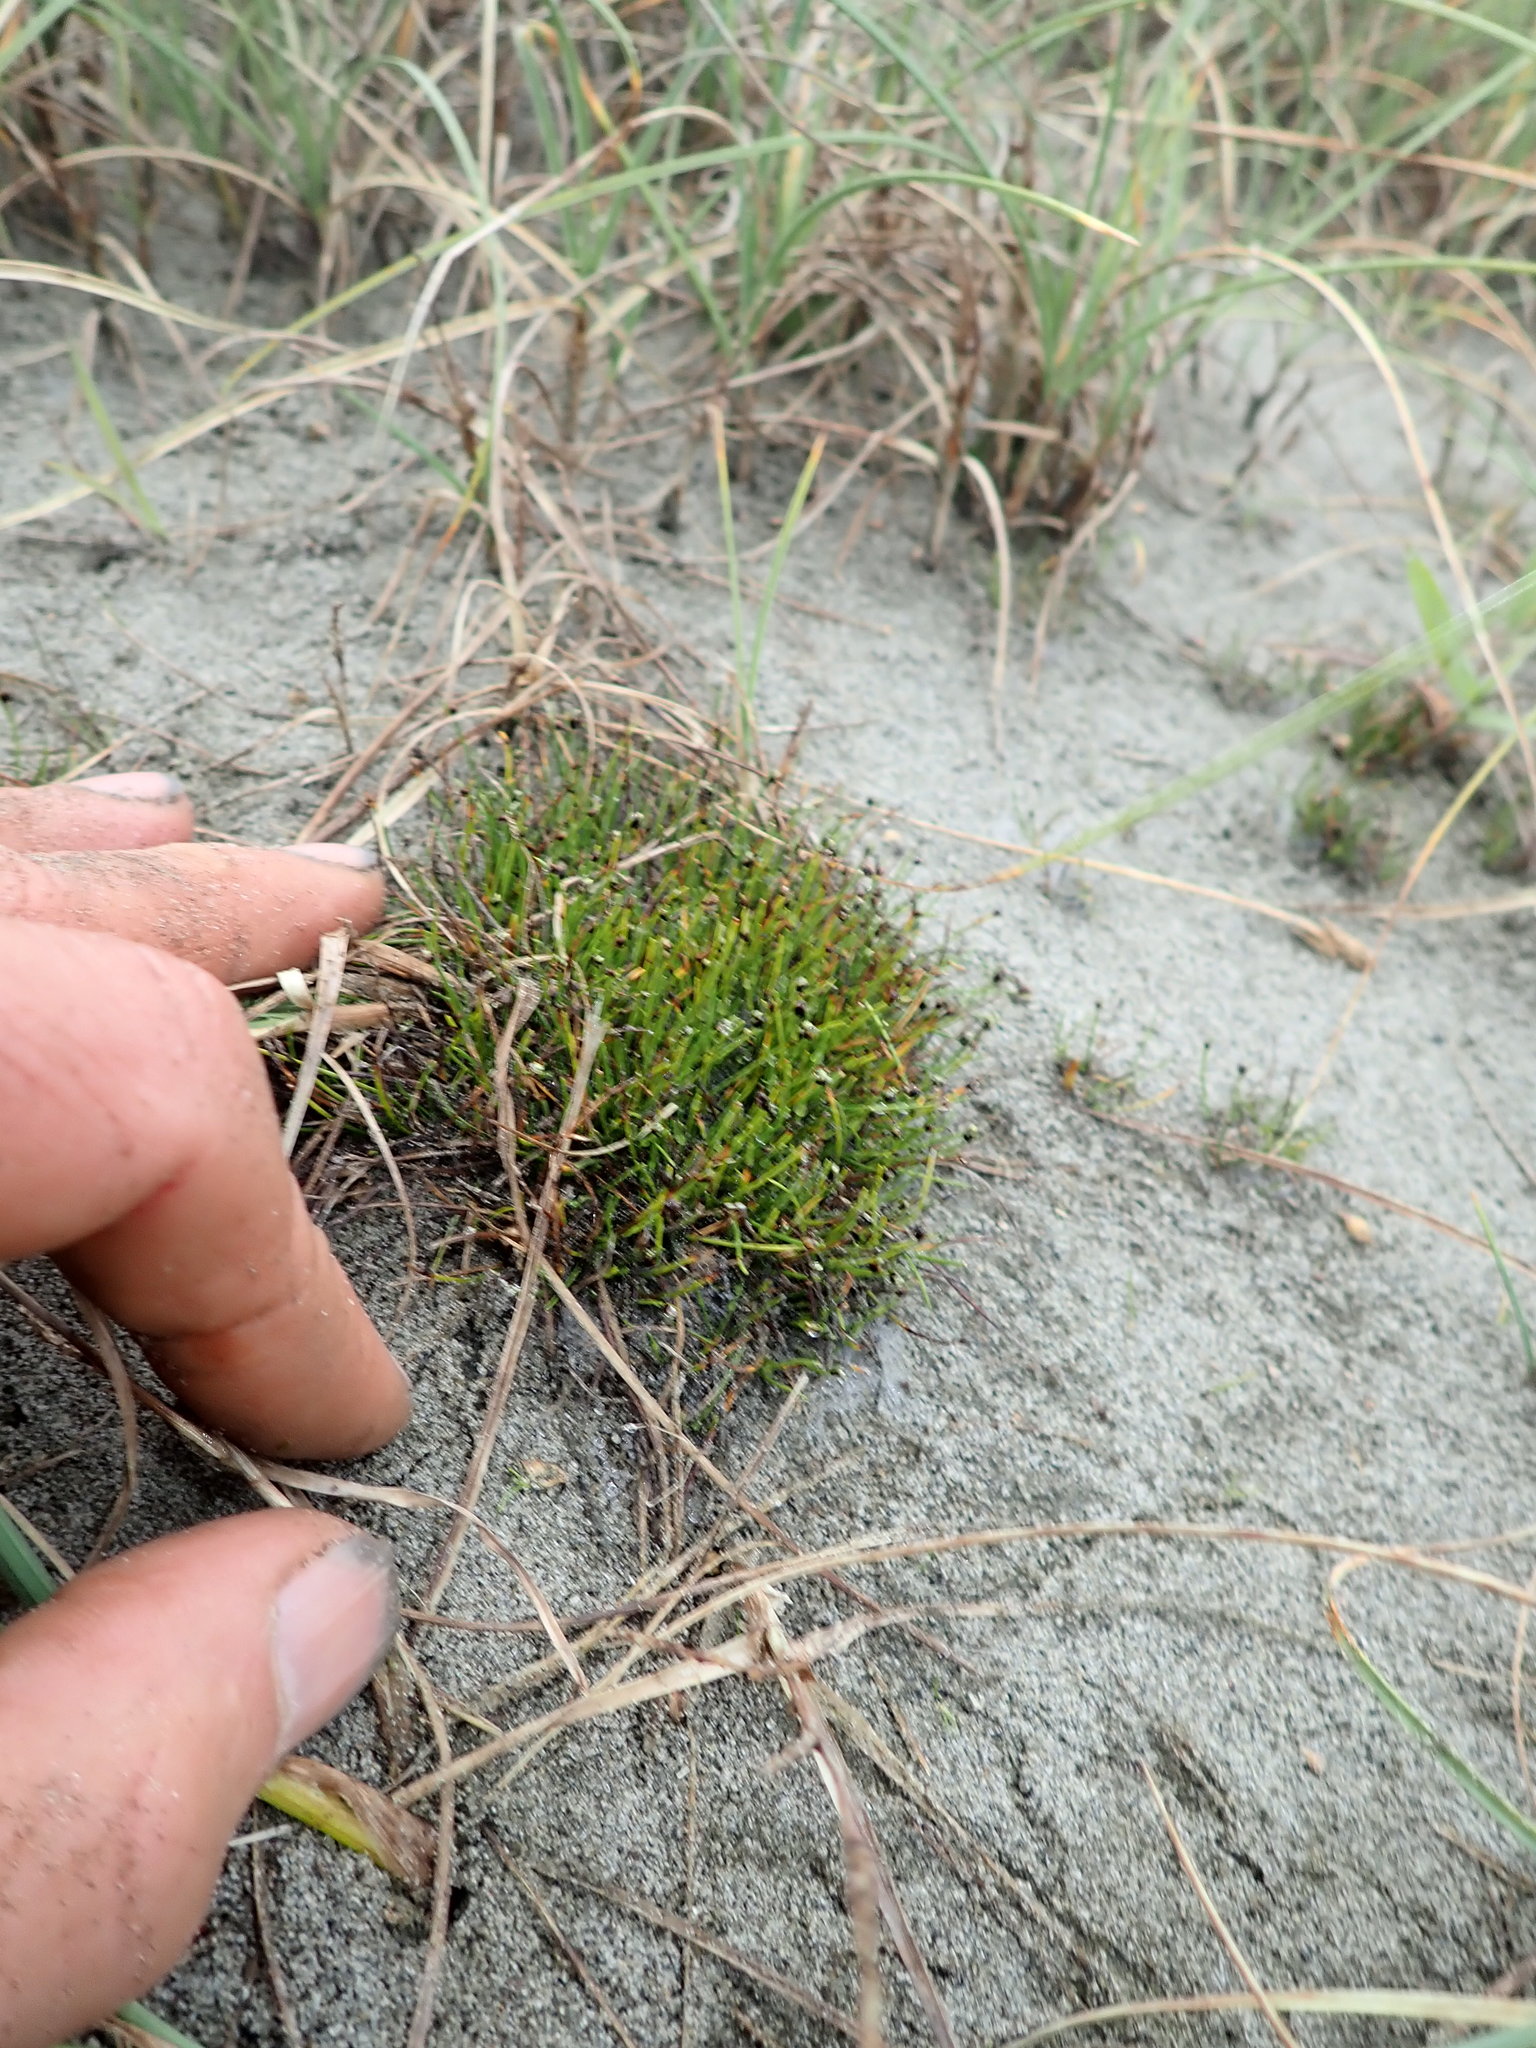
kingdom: Plantae
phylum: Tracheophyta
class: Liliopsida
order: Poales
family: Cyperaceae
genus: Isolepis
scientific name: Isolepis cernua
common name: Slender club-rush
